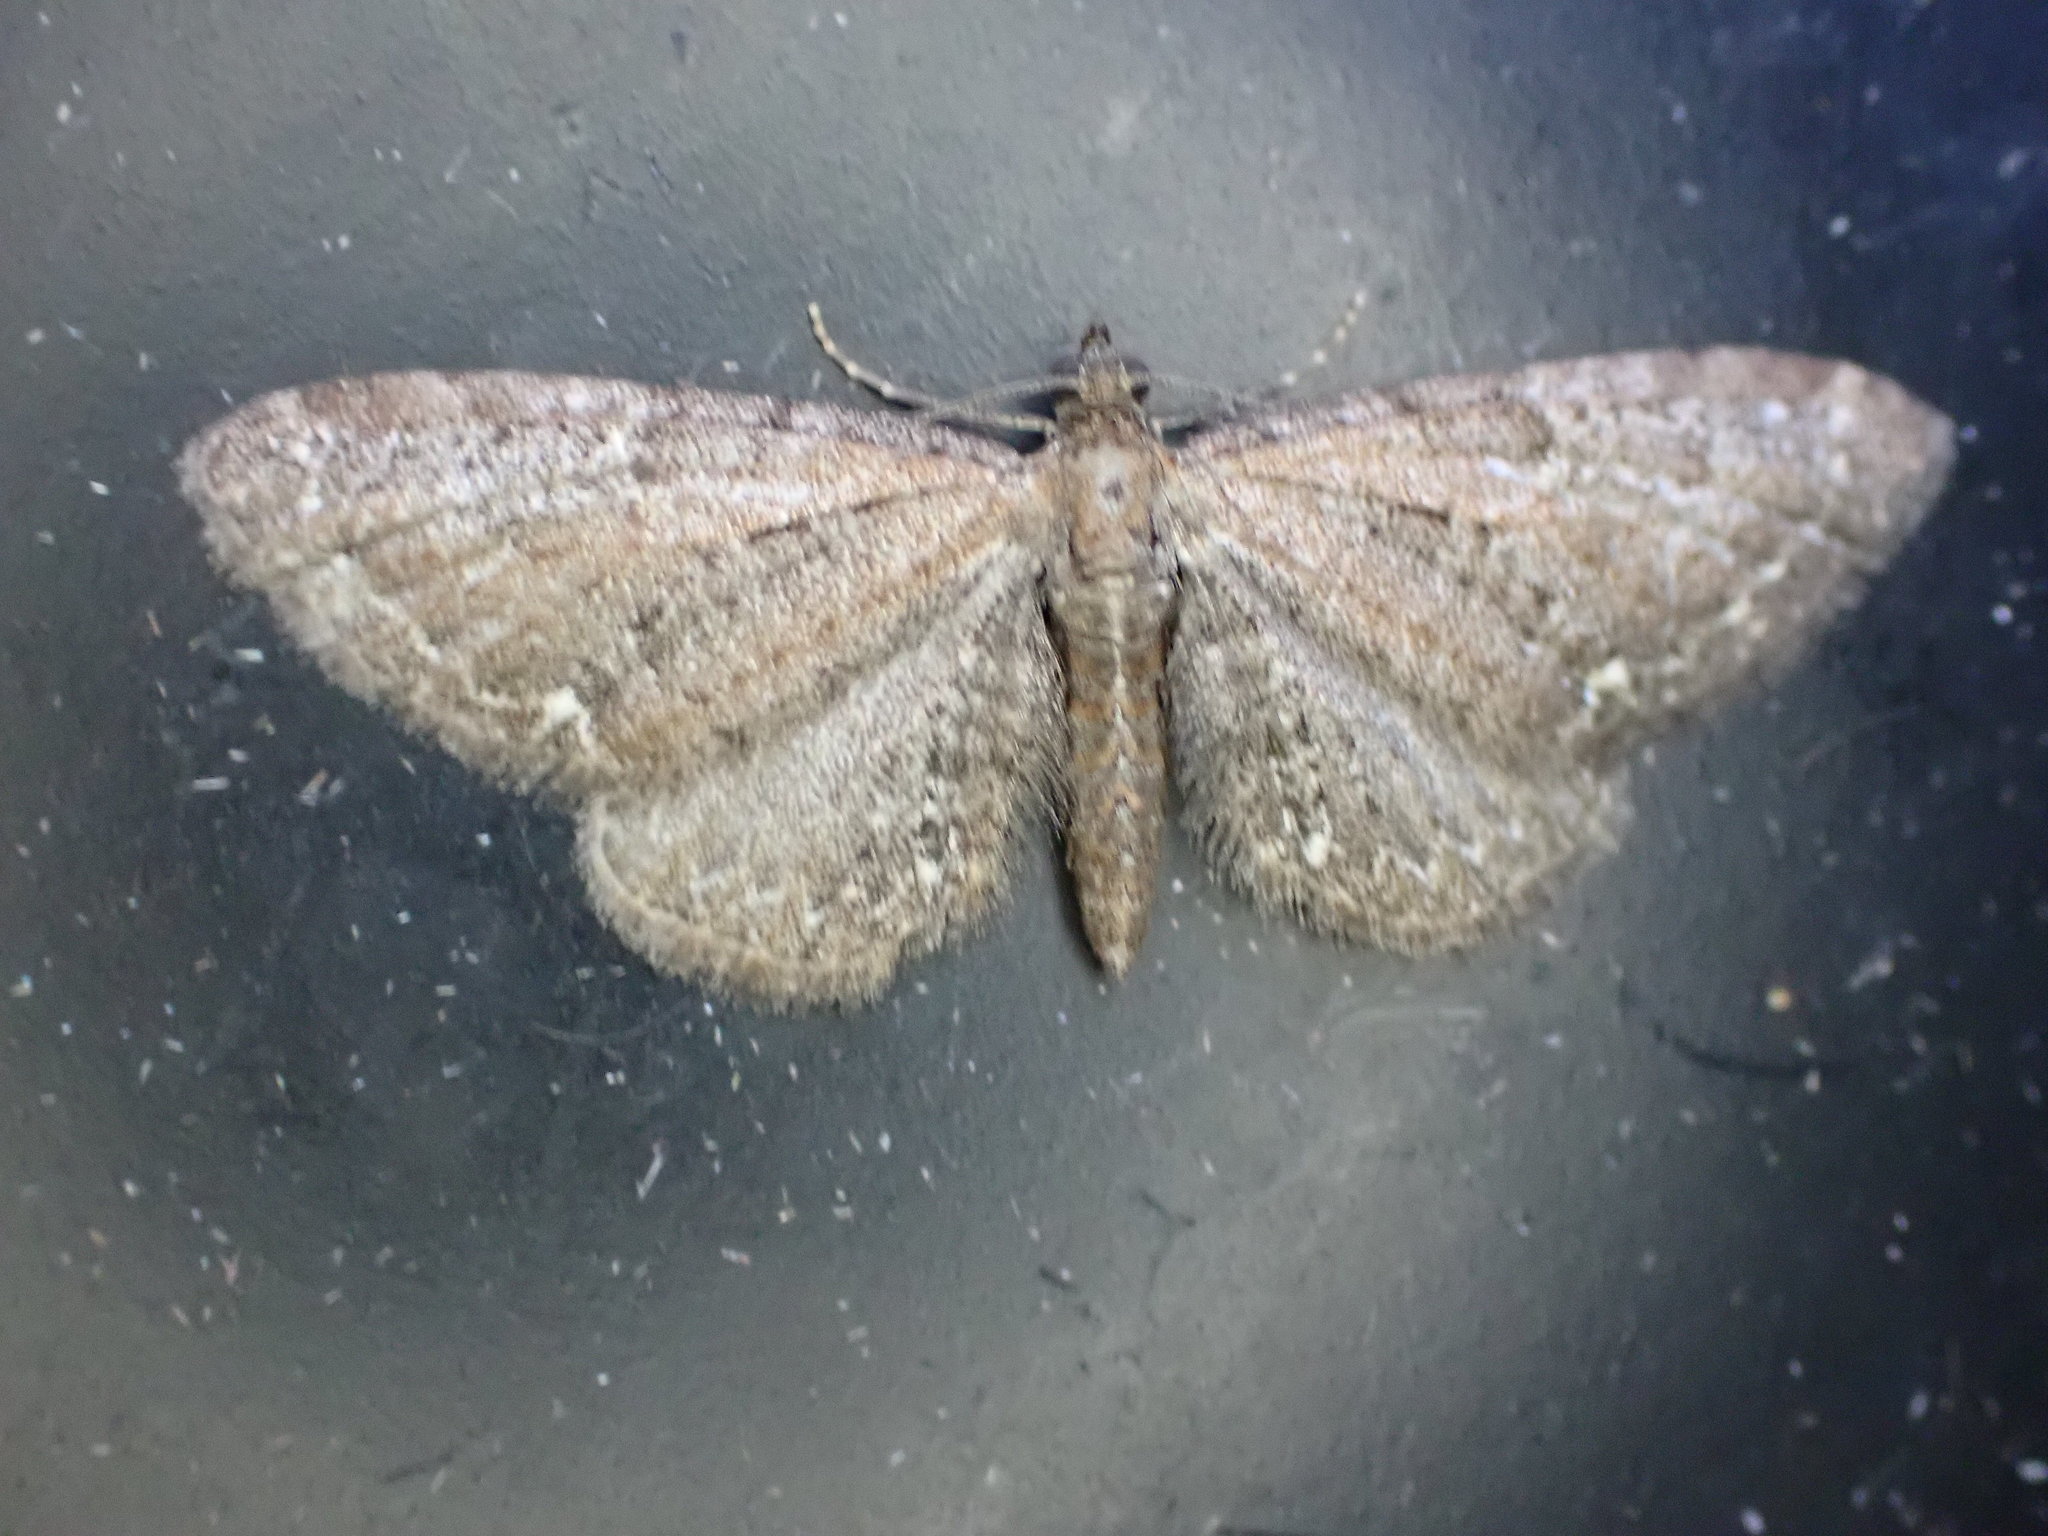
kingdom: Animalia
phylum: Arthropoda
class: Insecta
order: Lepidoptera
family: Geometridae
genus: Eupithecia
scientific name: Eupithecia vulgata
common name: Common pug
